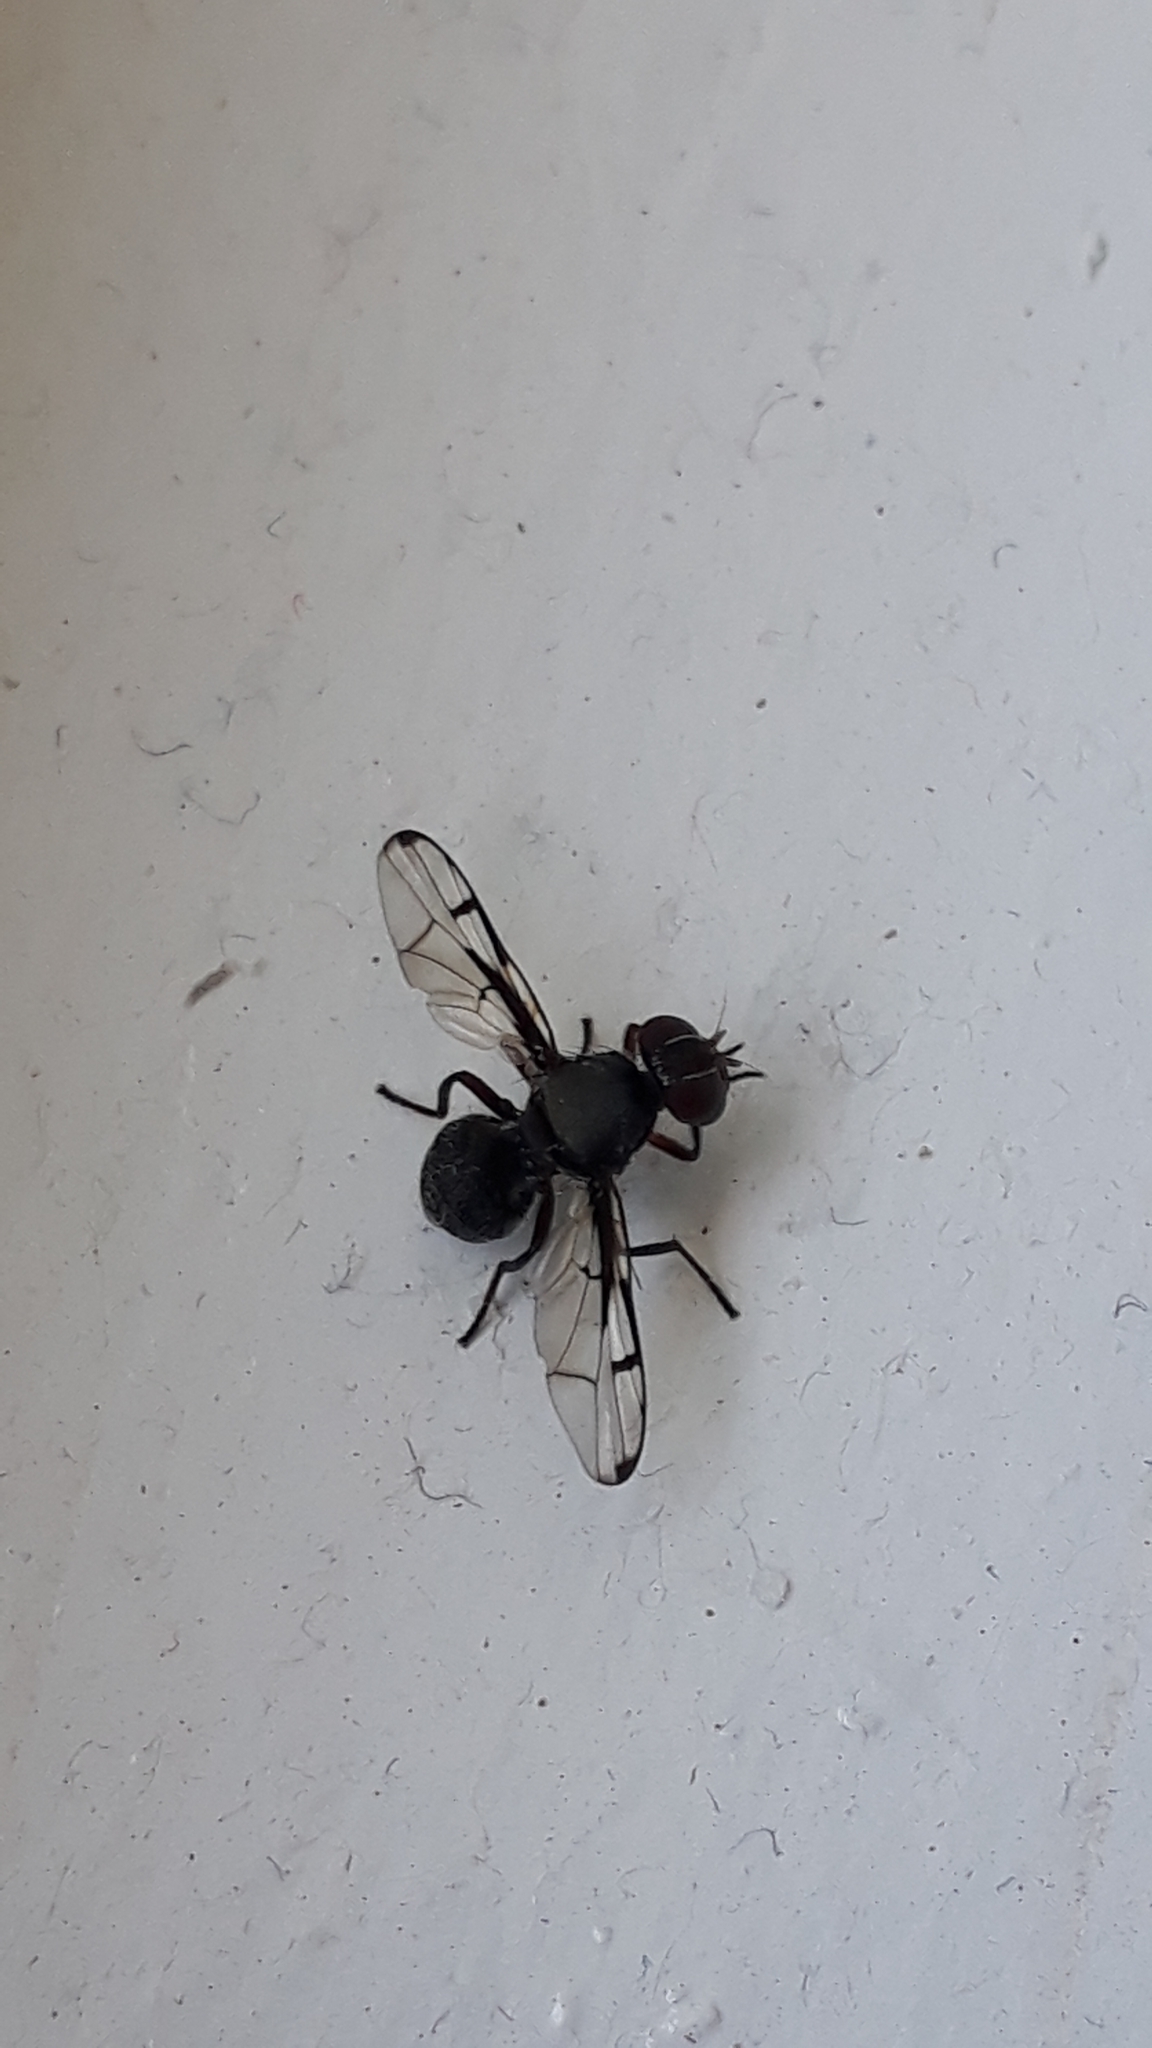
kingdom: Animalia
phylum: Arthropoda
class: Insecta
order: Diptera
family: Platystomatidae
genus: Pogonortalis
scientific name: Pogonortalis doclea
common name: Boatman fly
